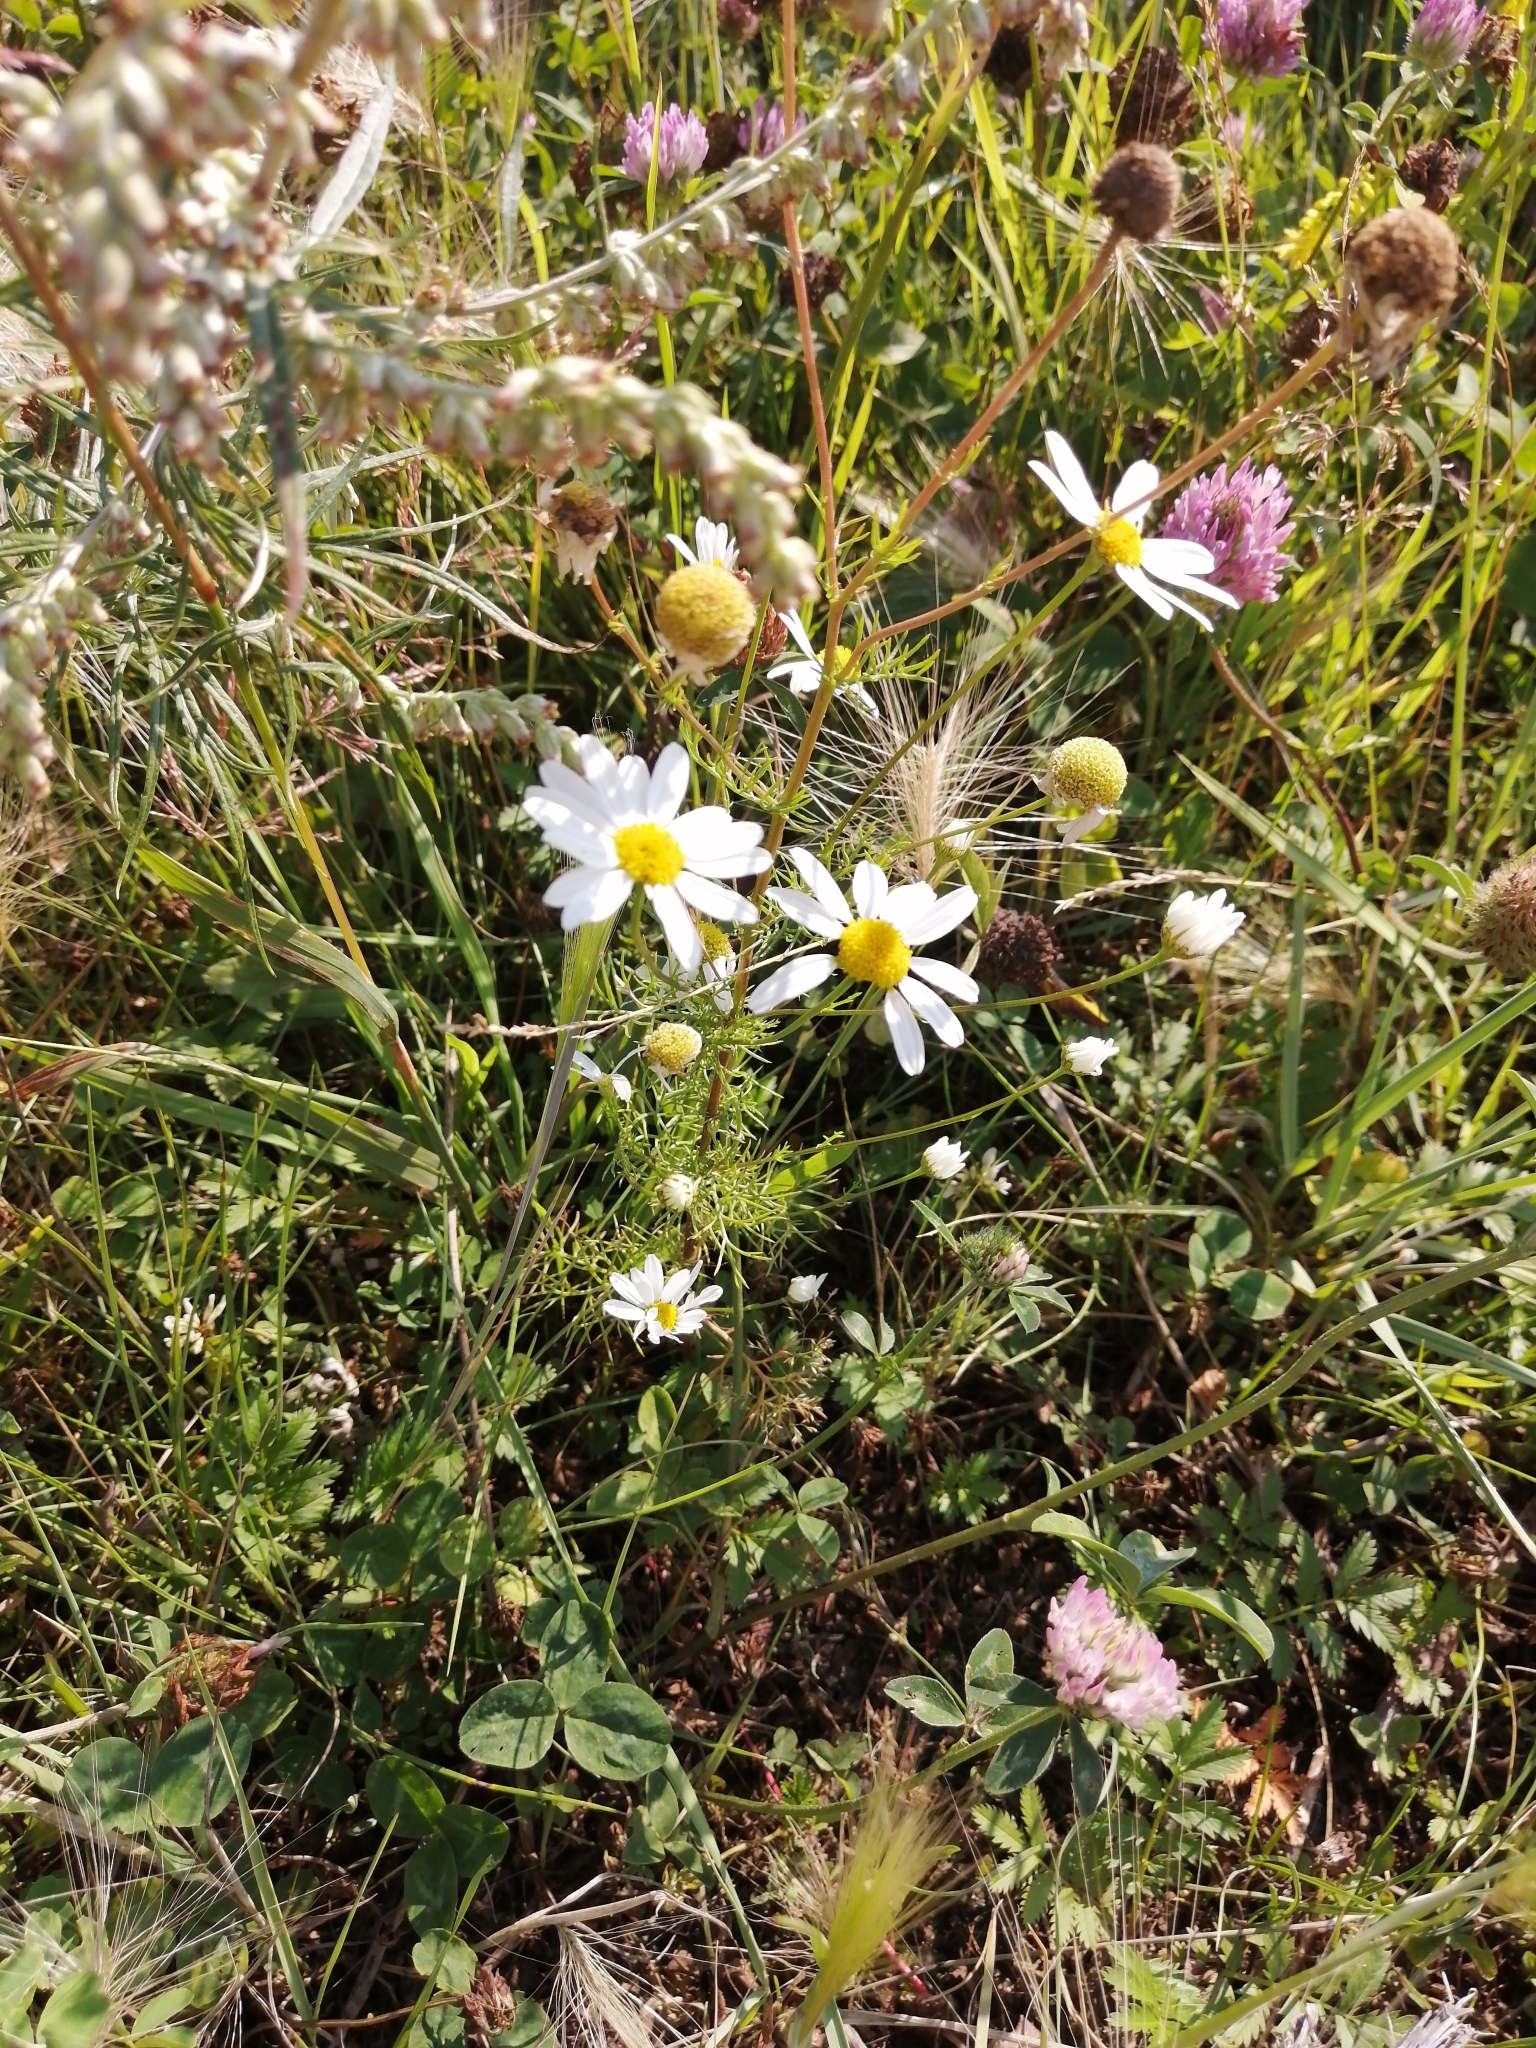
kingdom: Plantae
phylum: Tracheophyta
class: Magnoliopsida
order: Asterales
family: Asteraceae
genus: Tripleurospermum
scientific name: Tripleurospermum inodorum
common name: Scentless mayweed
